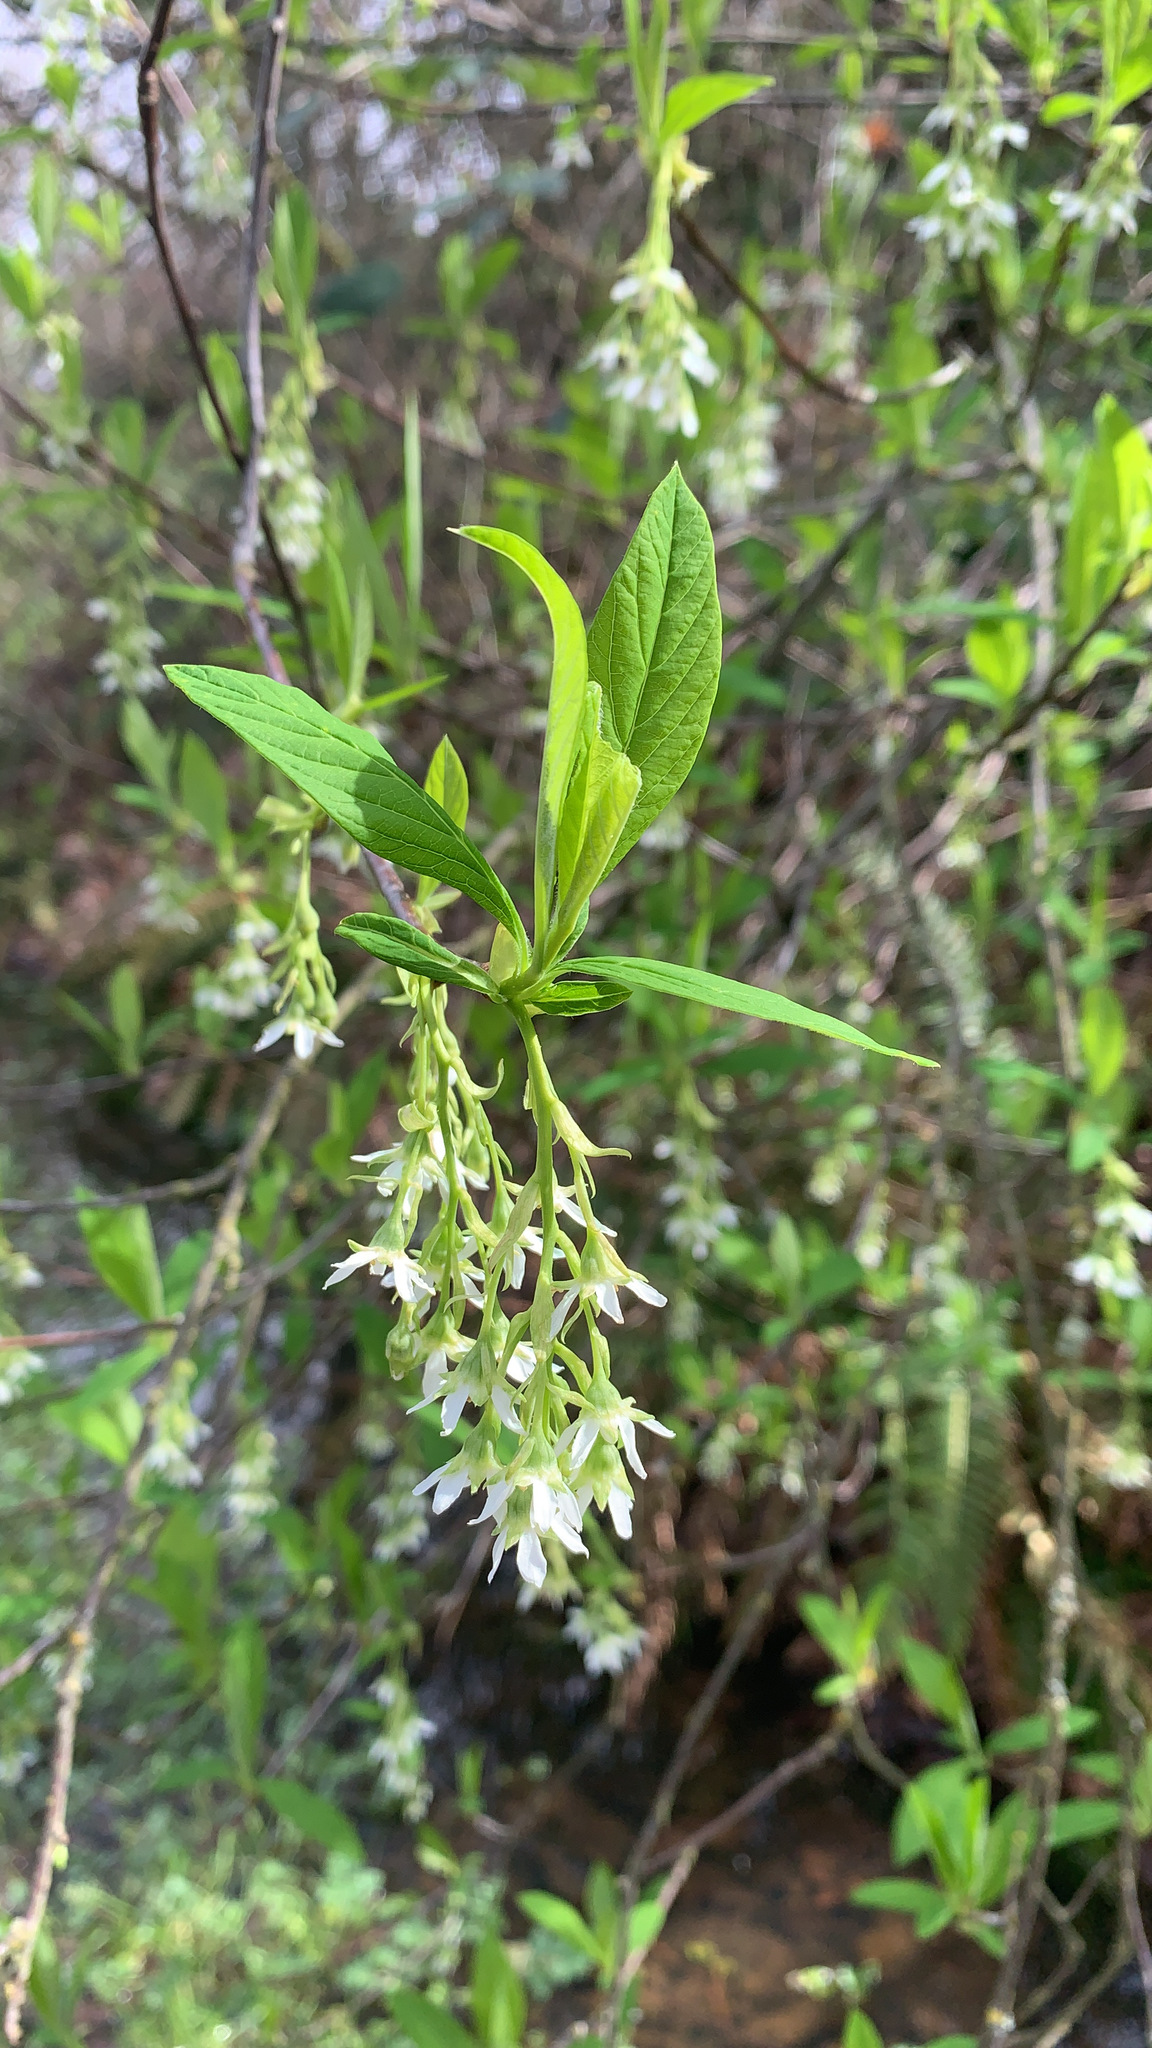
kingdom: Plantae
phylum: Tracheophyta
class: Magnoliopsida
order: Rosales
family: Rosaceae
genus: Oemleria
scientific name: Oemleria cerasiformis
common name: Osoberry
